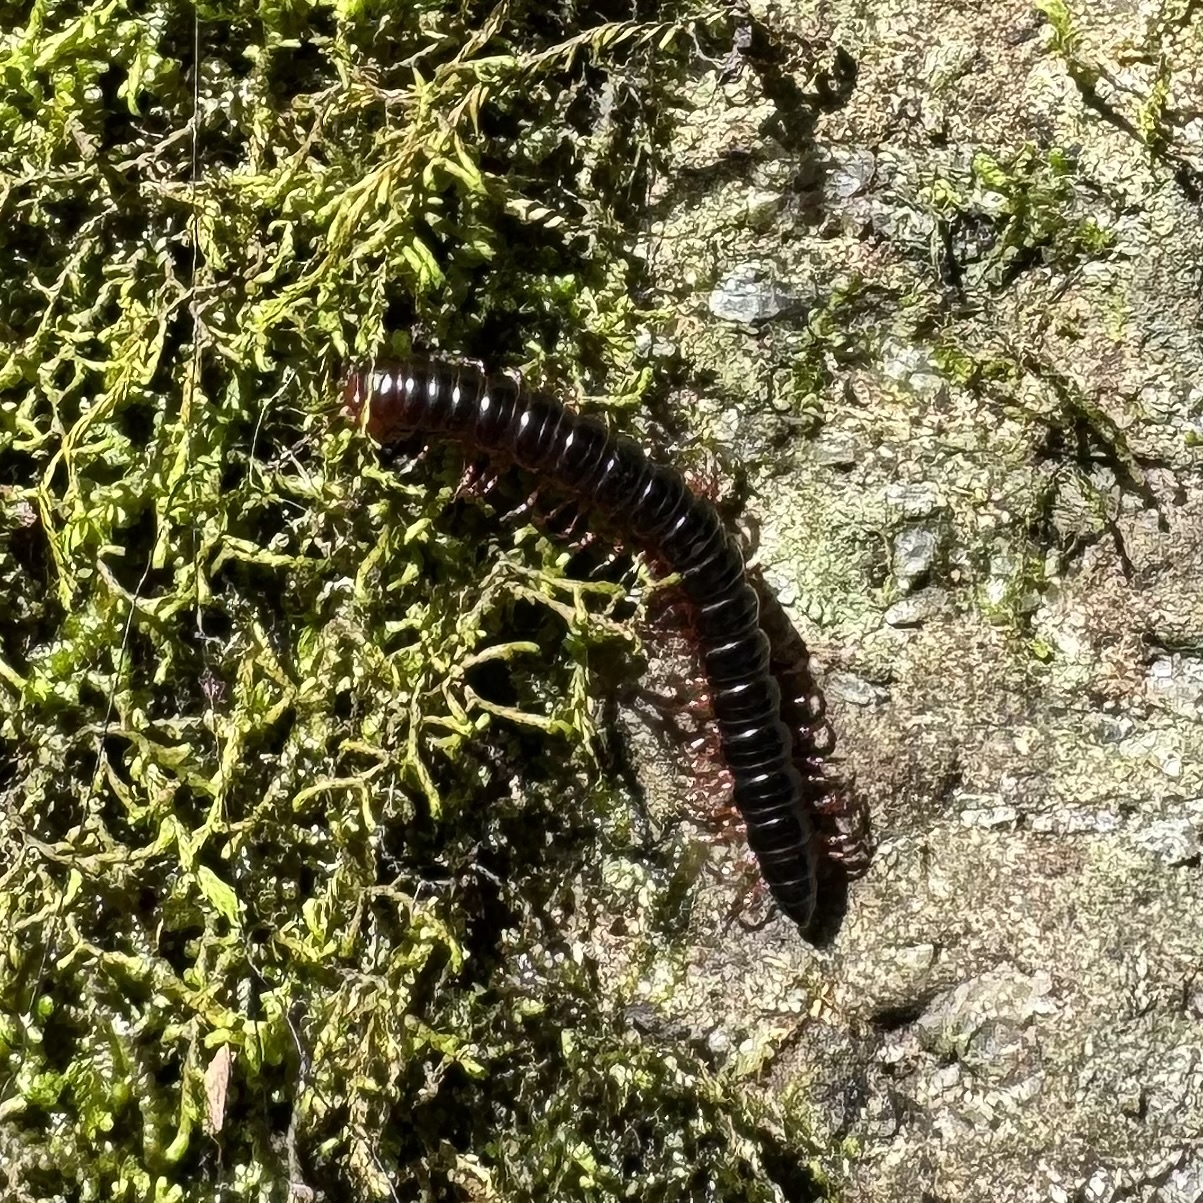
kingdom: Animalia
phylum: Arthropoda
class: Diplopoda
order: Polydesmida
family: Paradoxosomatidae
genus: Heterocladosoma
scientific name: Heterocladosoma
